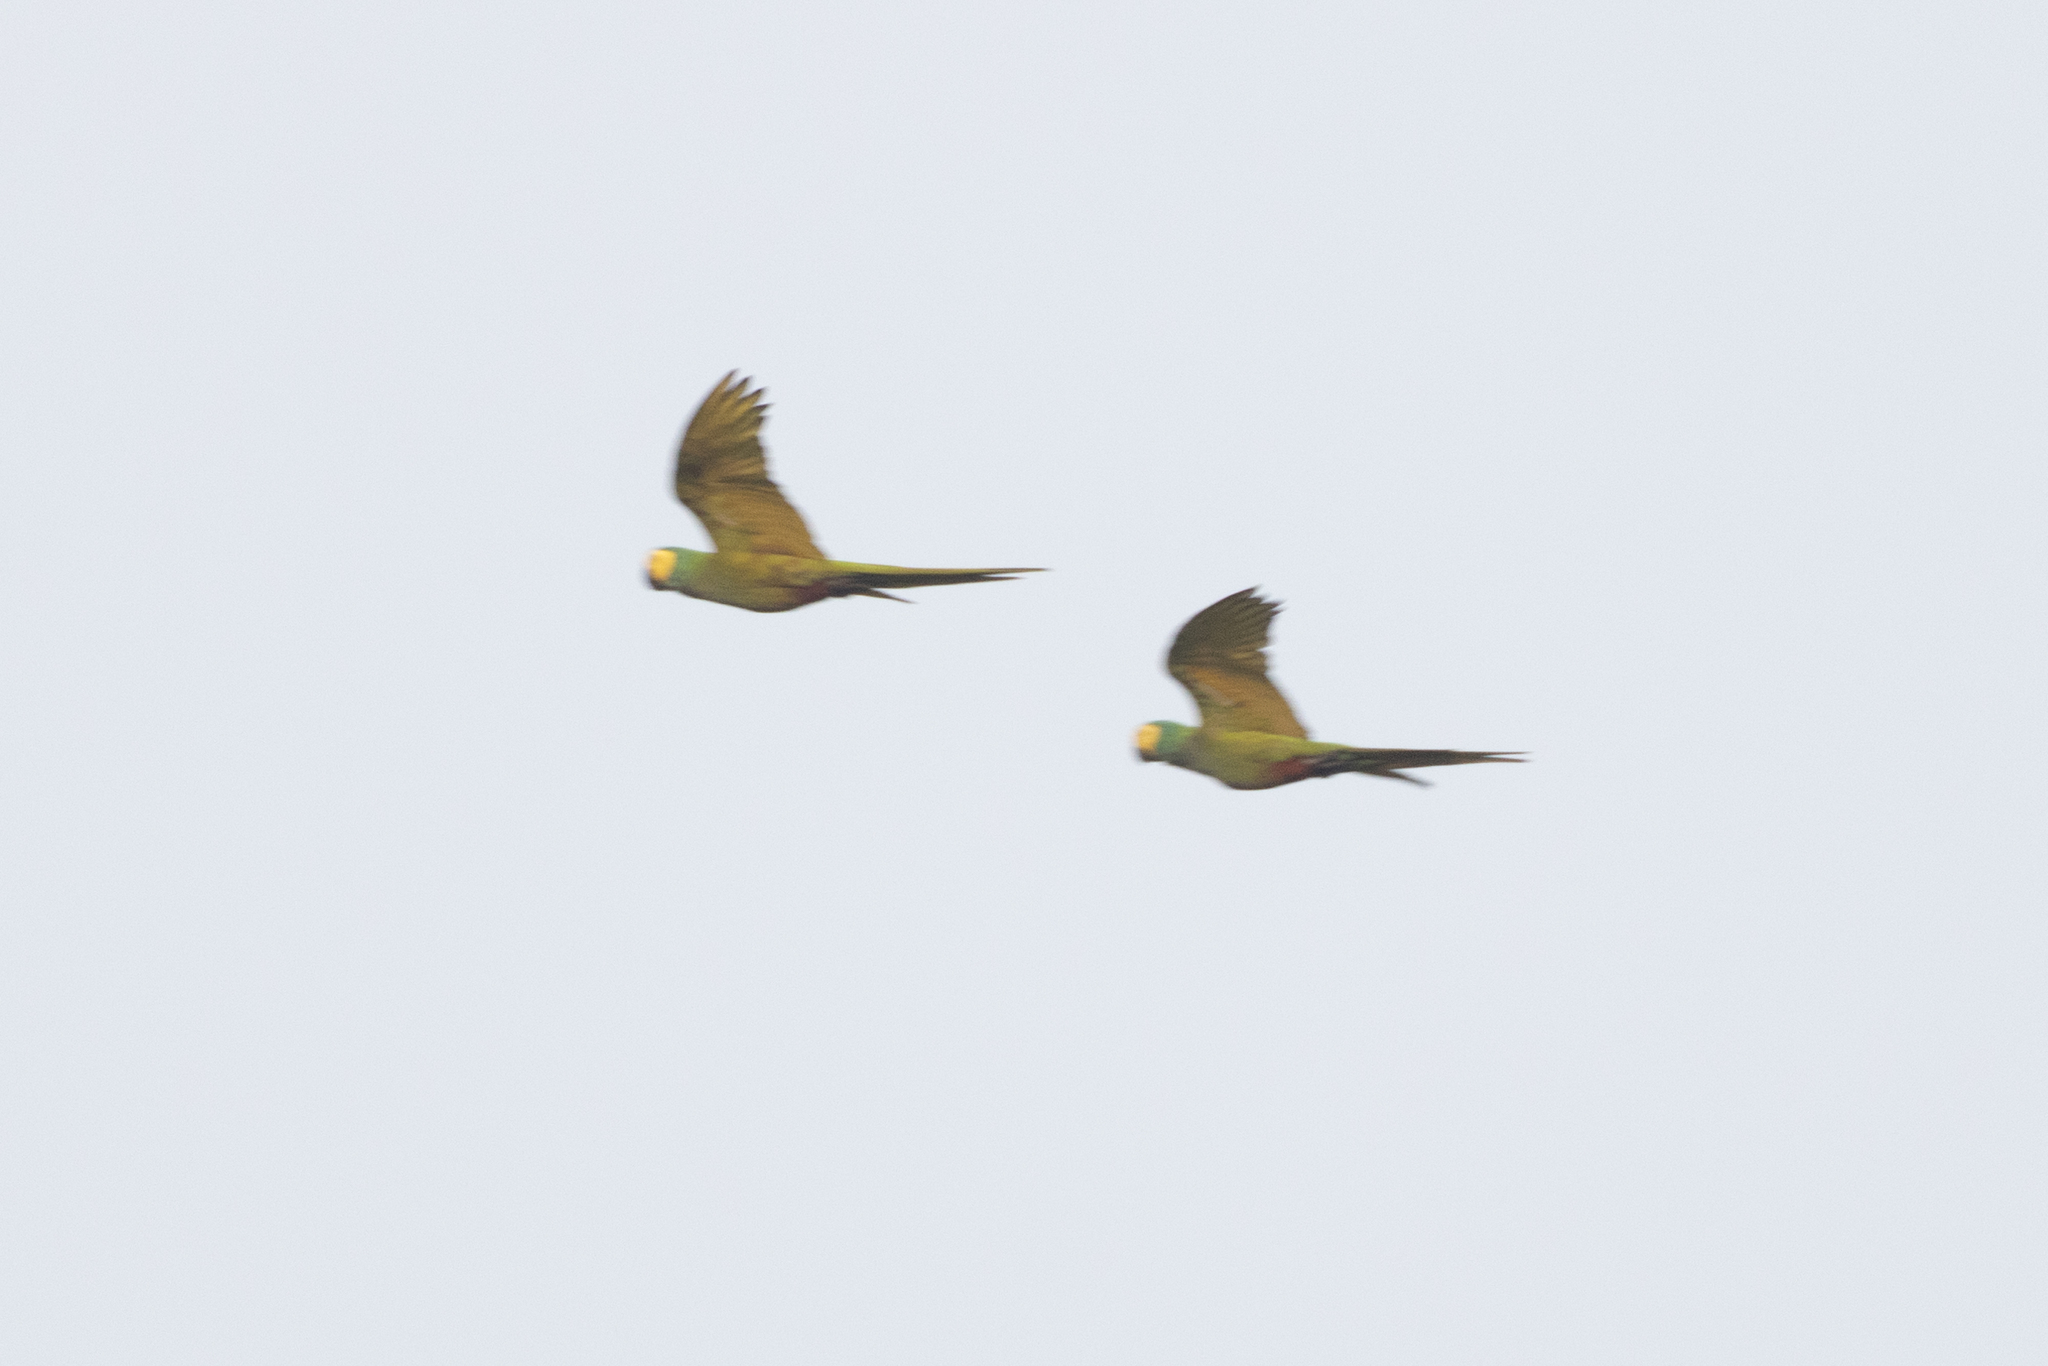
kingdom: Animalia
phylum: Chordata
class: Aves
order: Psittaciformes
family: Psittacidae
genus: Orthopsittaca
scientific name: Orthopsittaca manilata
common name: Red-bellied macaw
